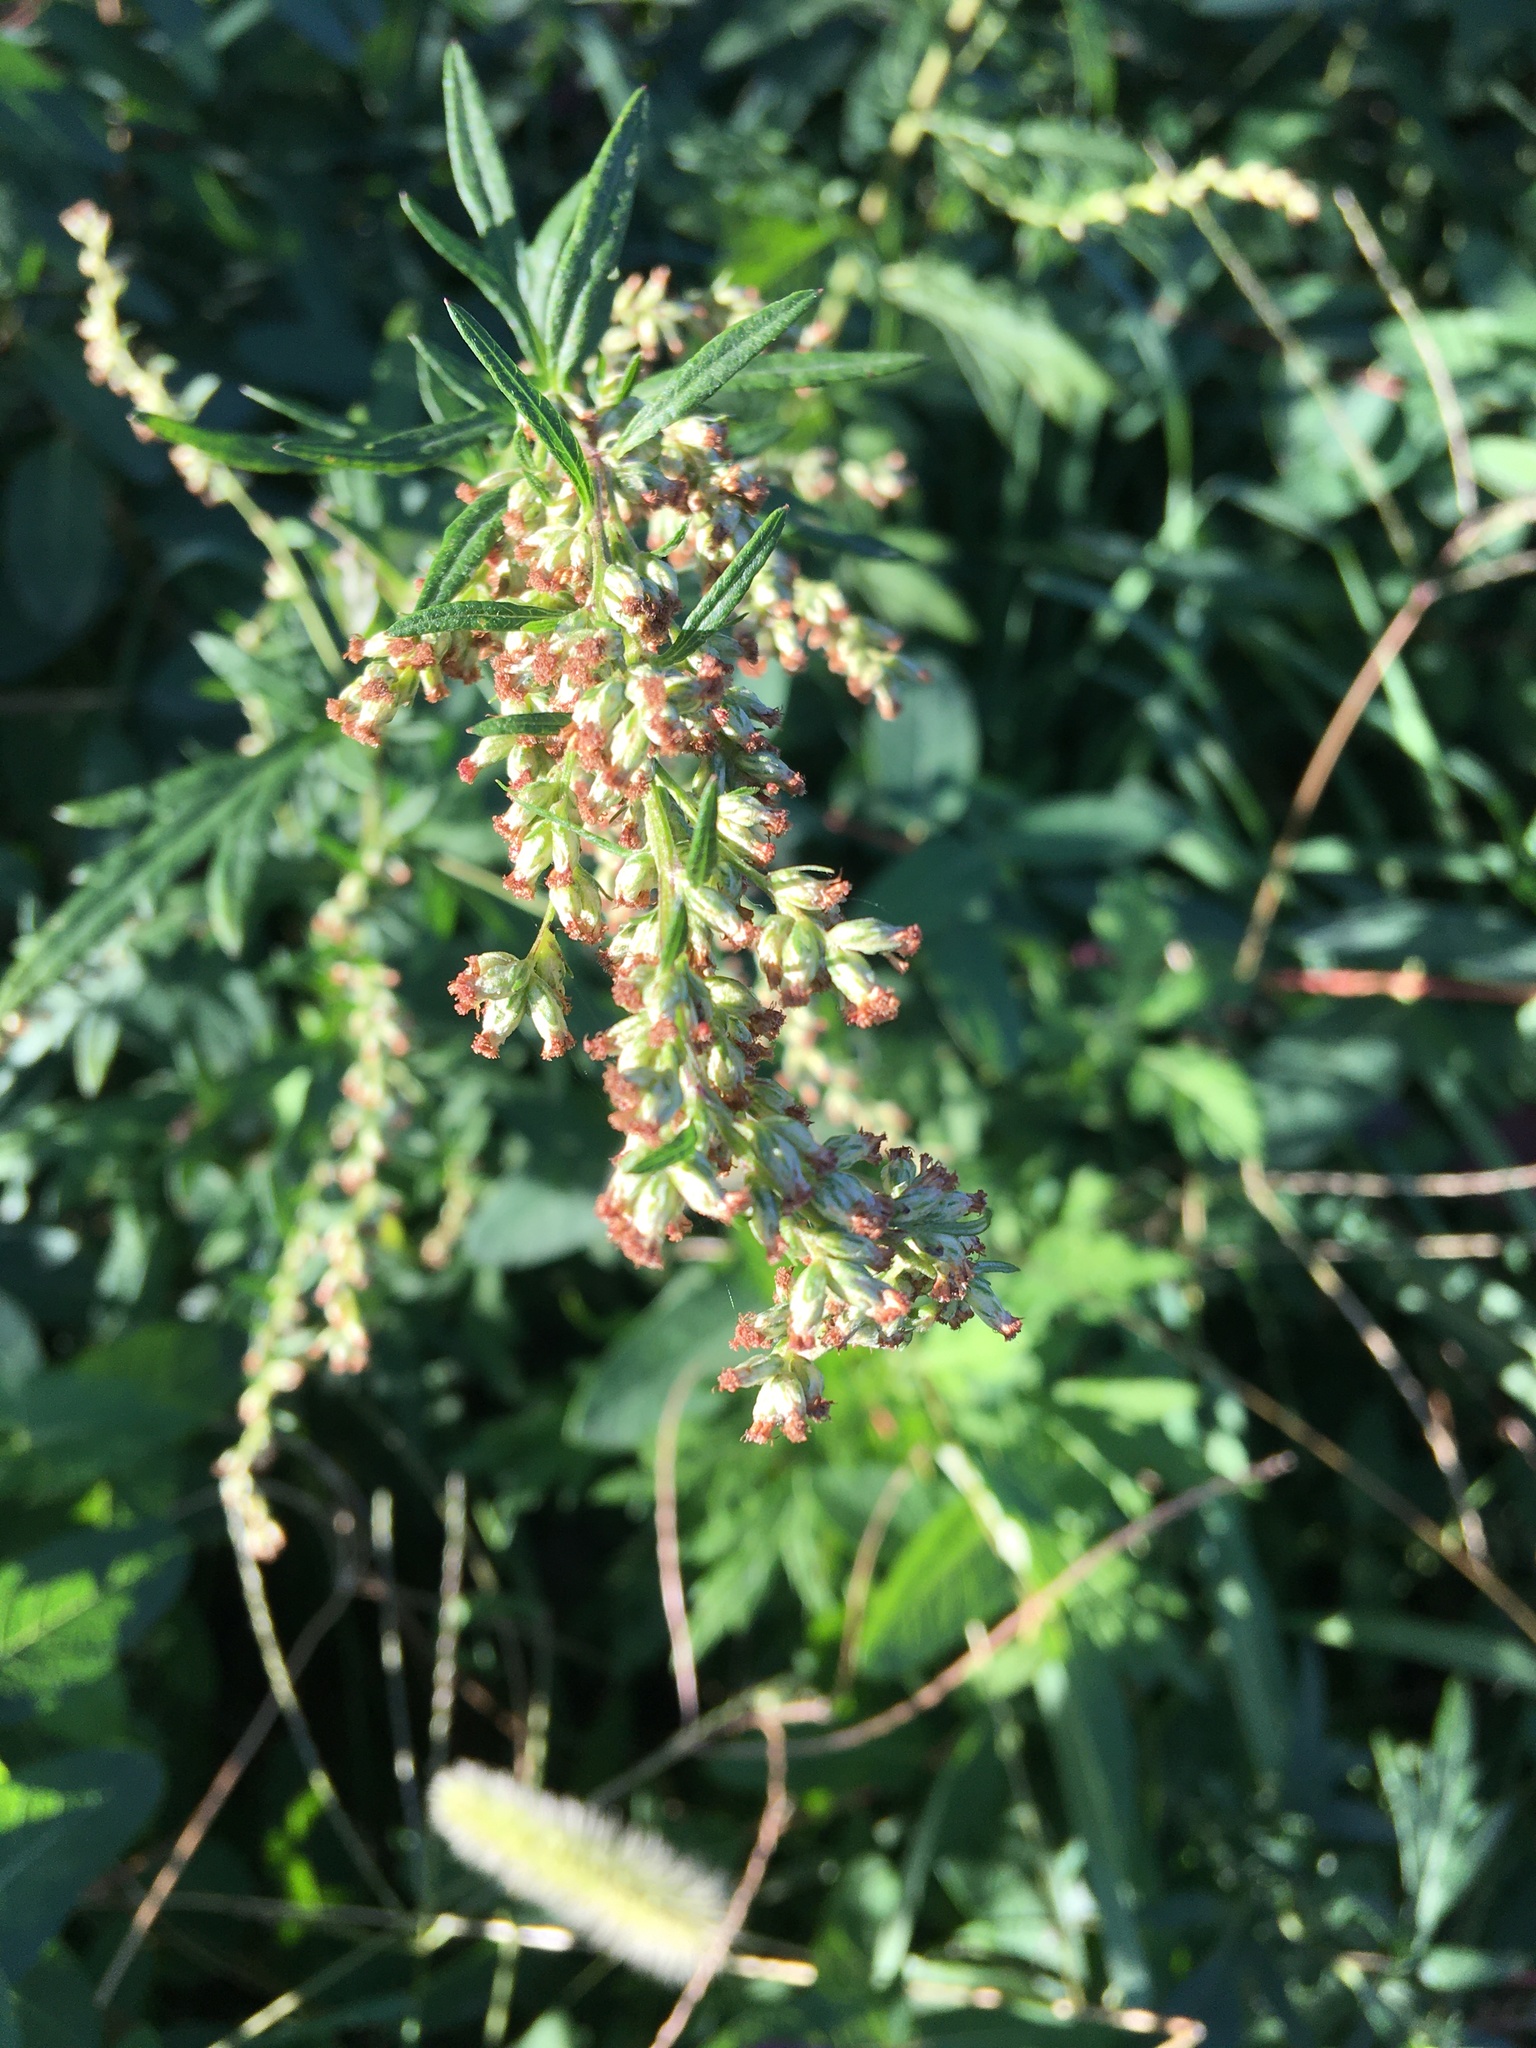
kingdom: Plantae
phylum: Tracheophyta
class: Magnoliopsida
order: Asterales
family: Asteraceae
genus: Artemisia
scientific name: Artemisia vulgaris
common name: Mugwort
